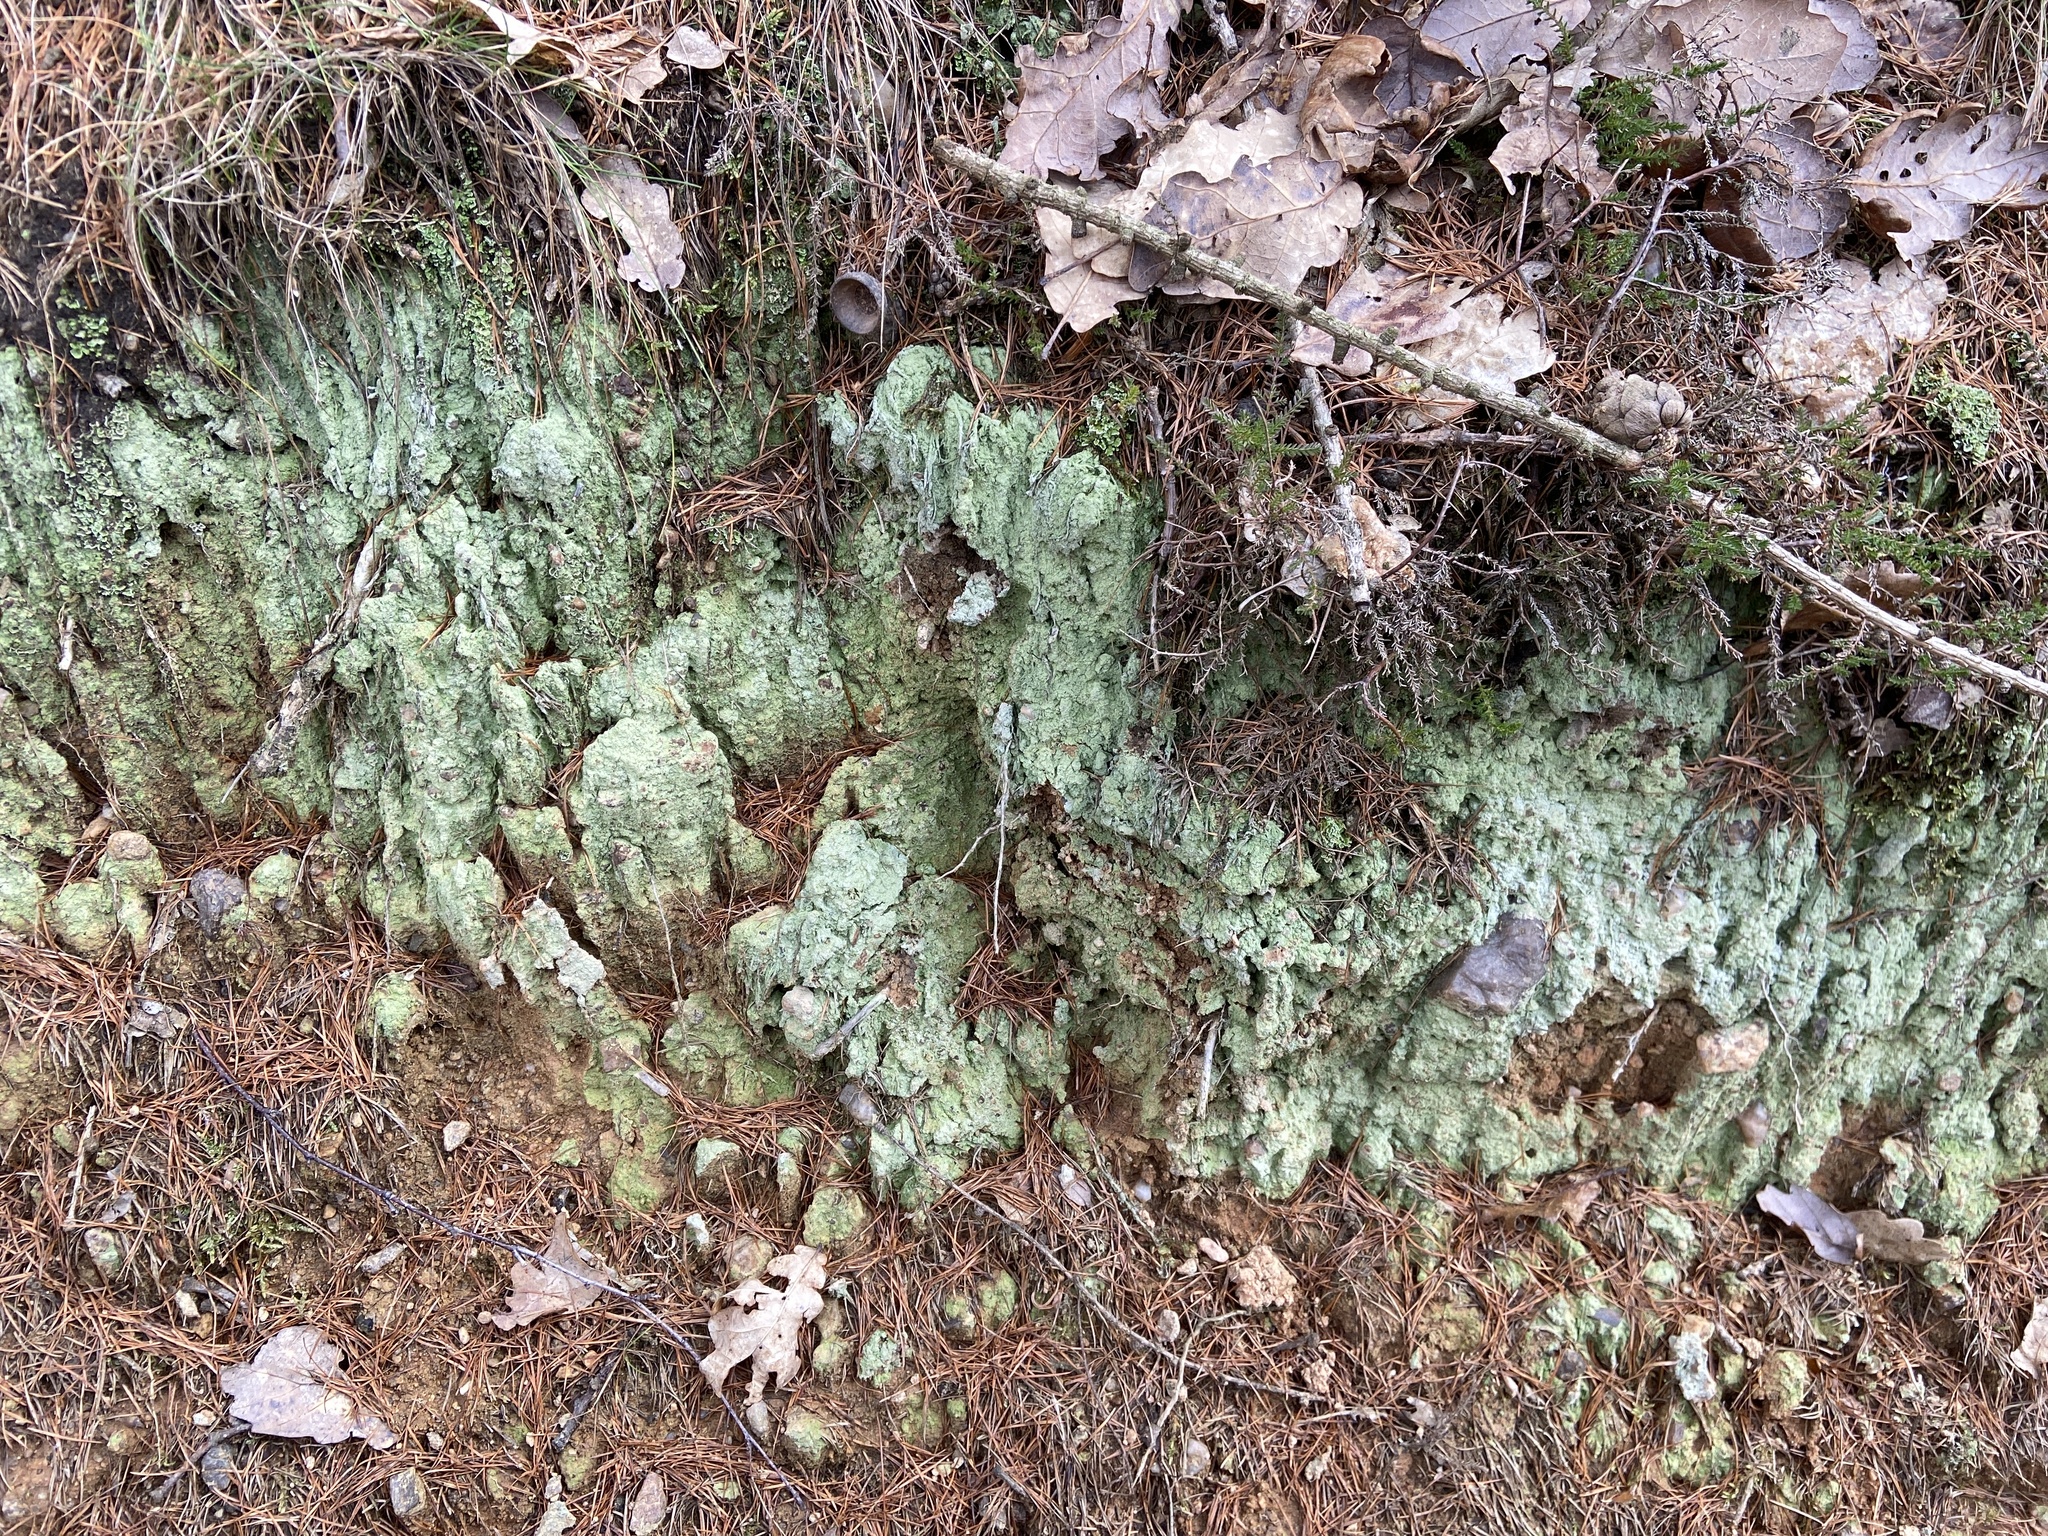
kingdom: Fungi
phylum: Ascomycota
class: Lecanoromycetes
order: Lecanorales
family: Stereocaulaceae
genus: Lepraria
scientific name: Lepraria
